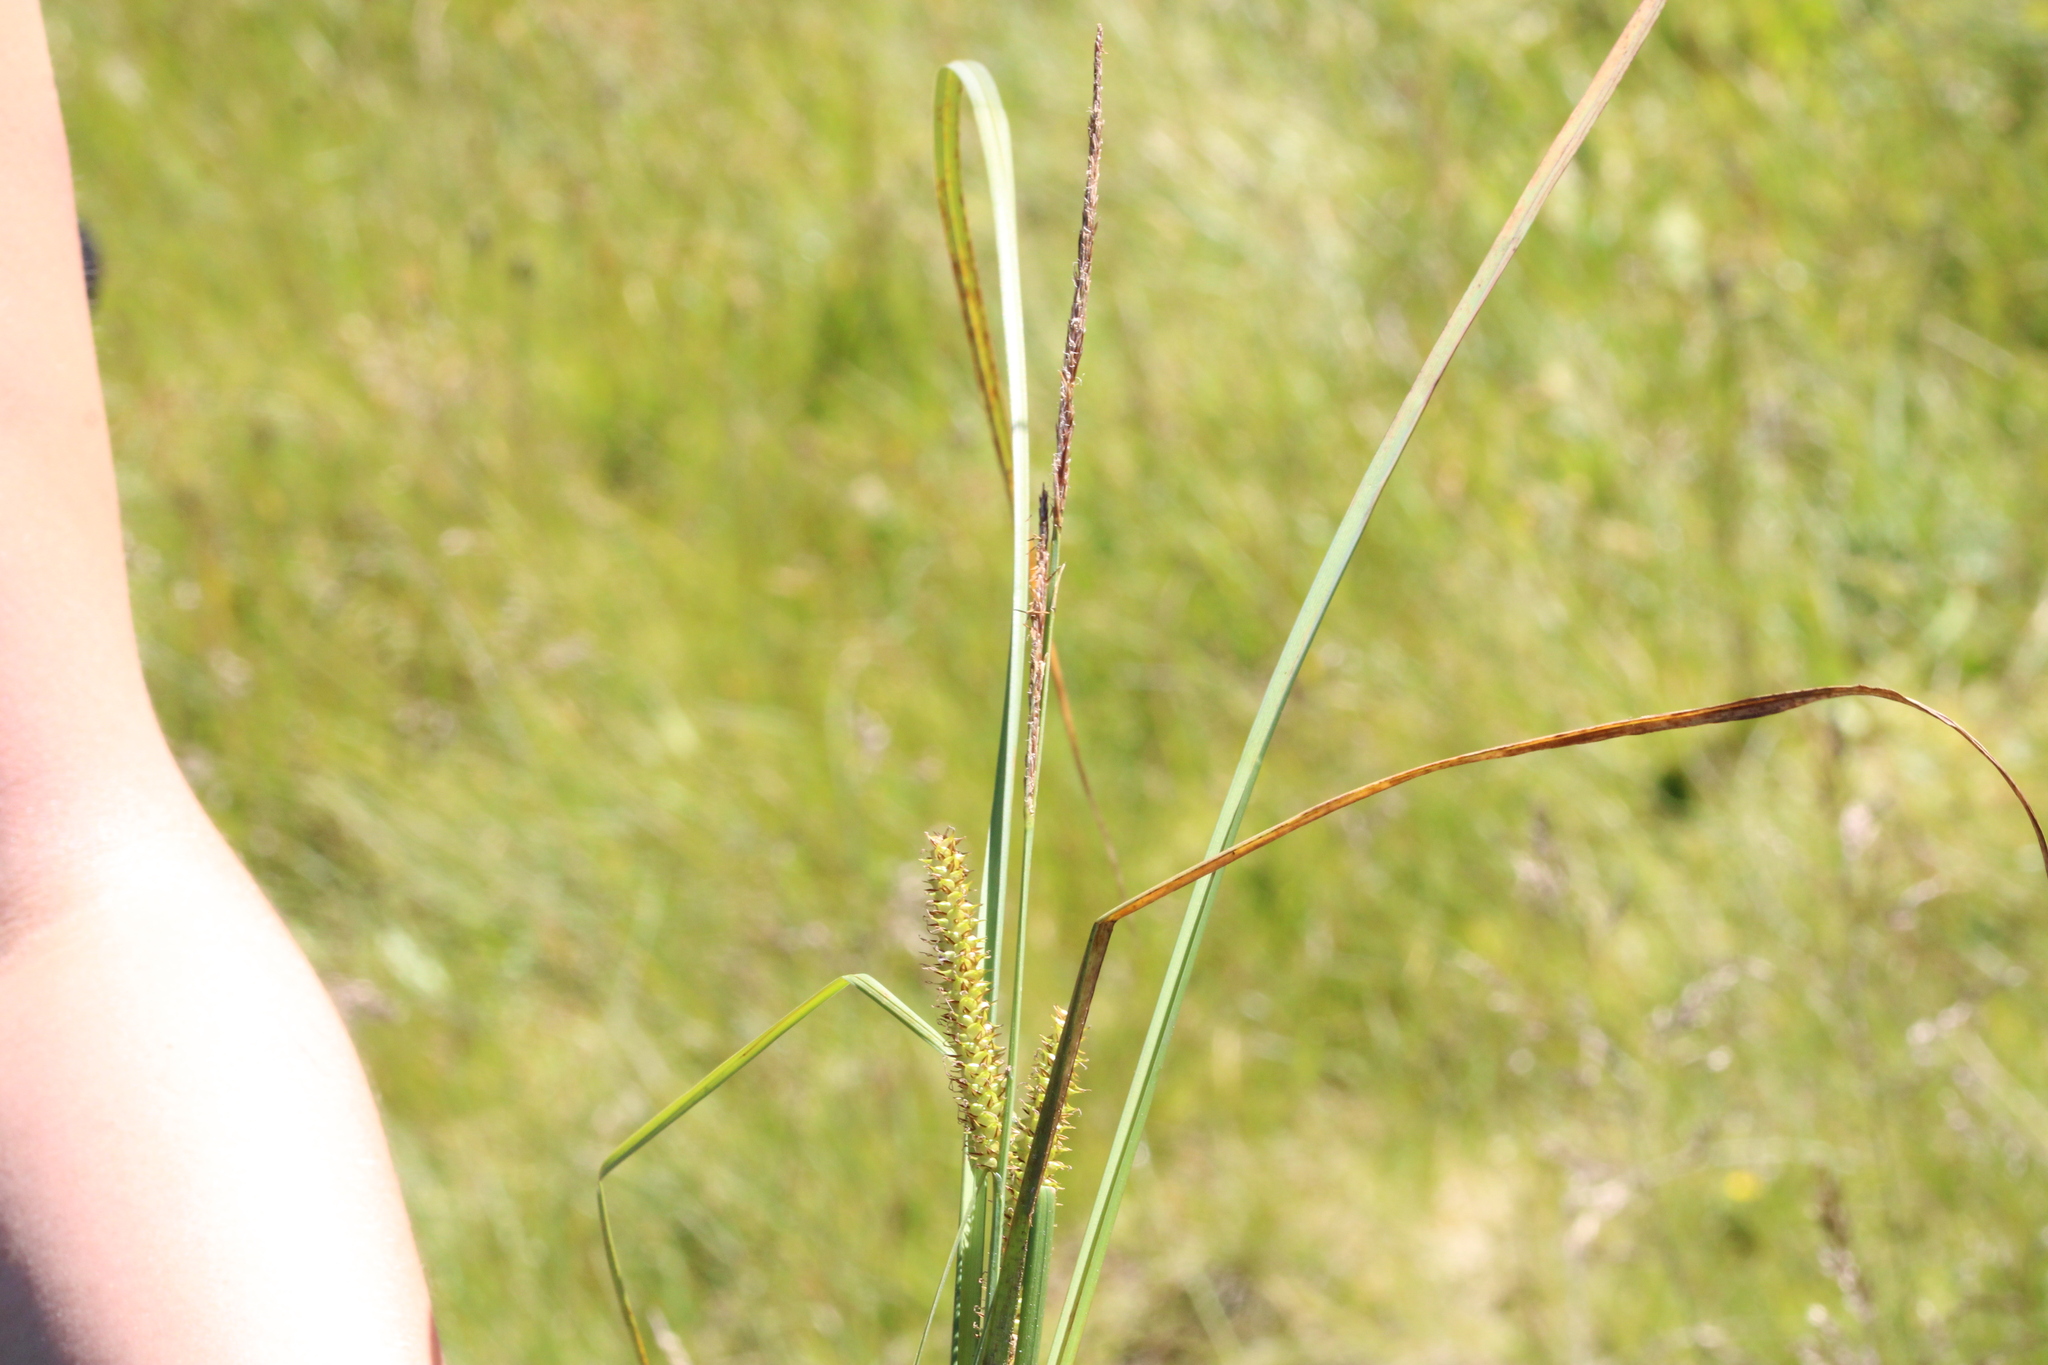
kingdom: Plantae
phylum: Tracheophyta
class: Liliopsida
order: Poales
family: Cyperaceae
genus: Carex
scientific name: Carex rostrata
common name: Bottle sedge
